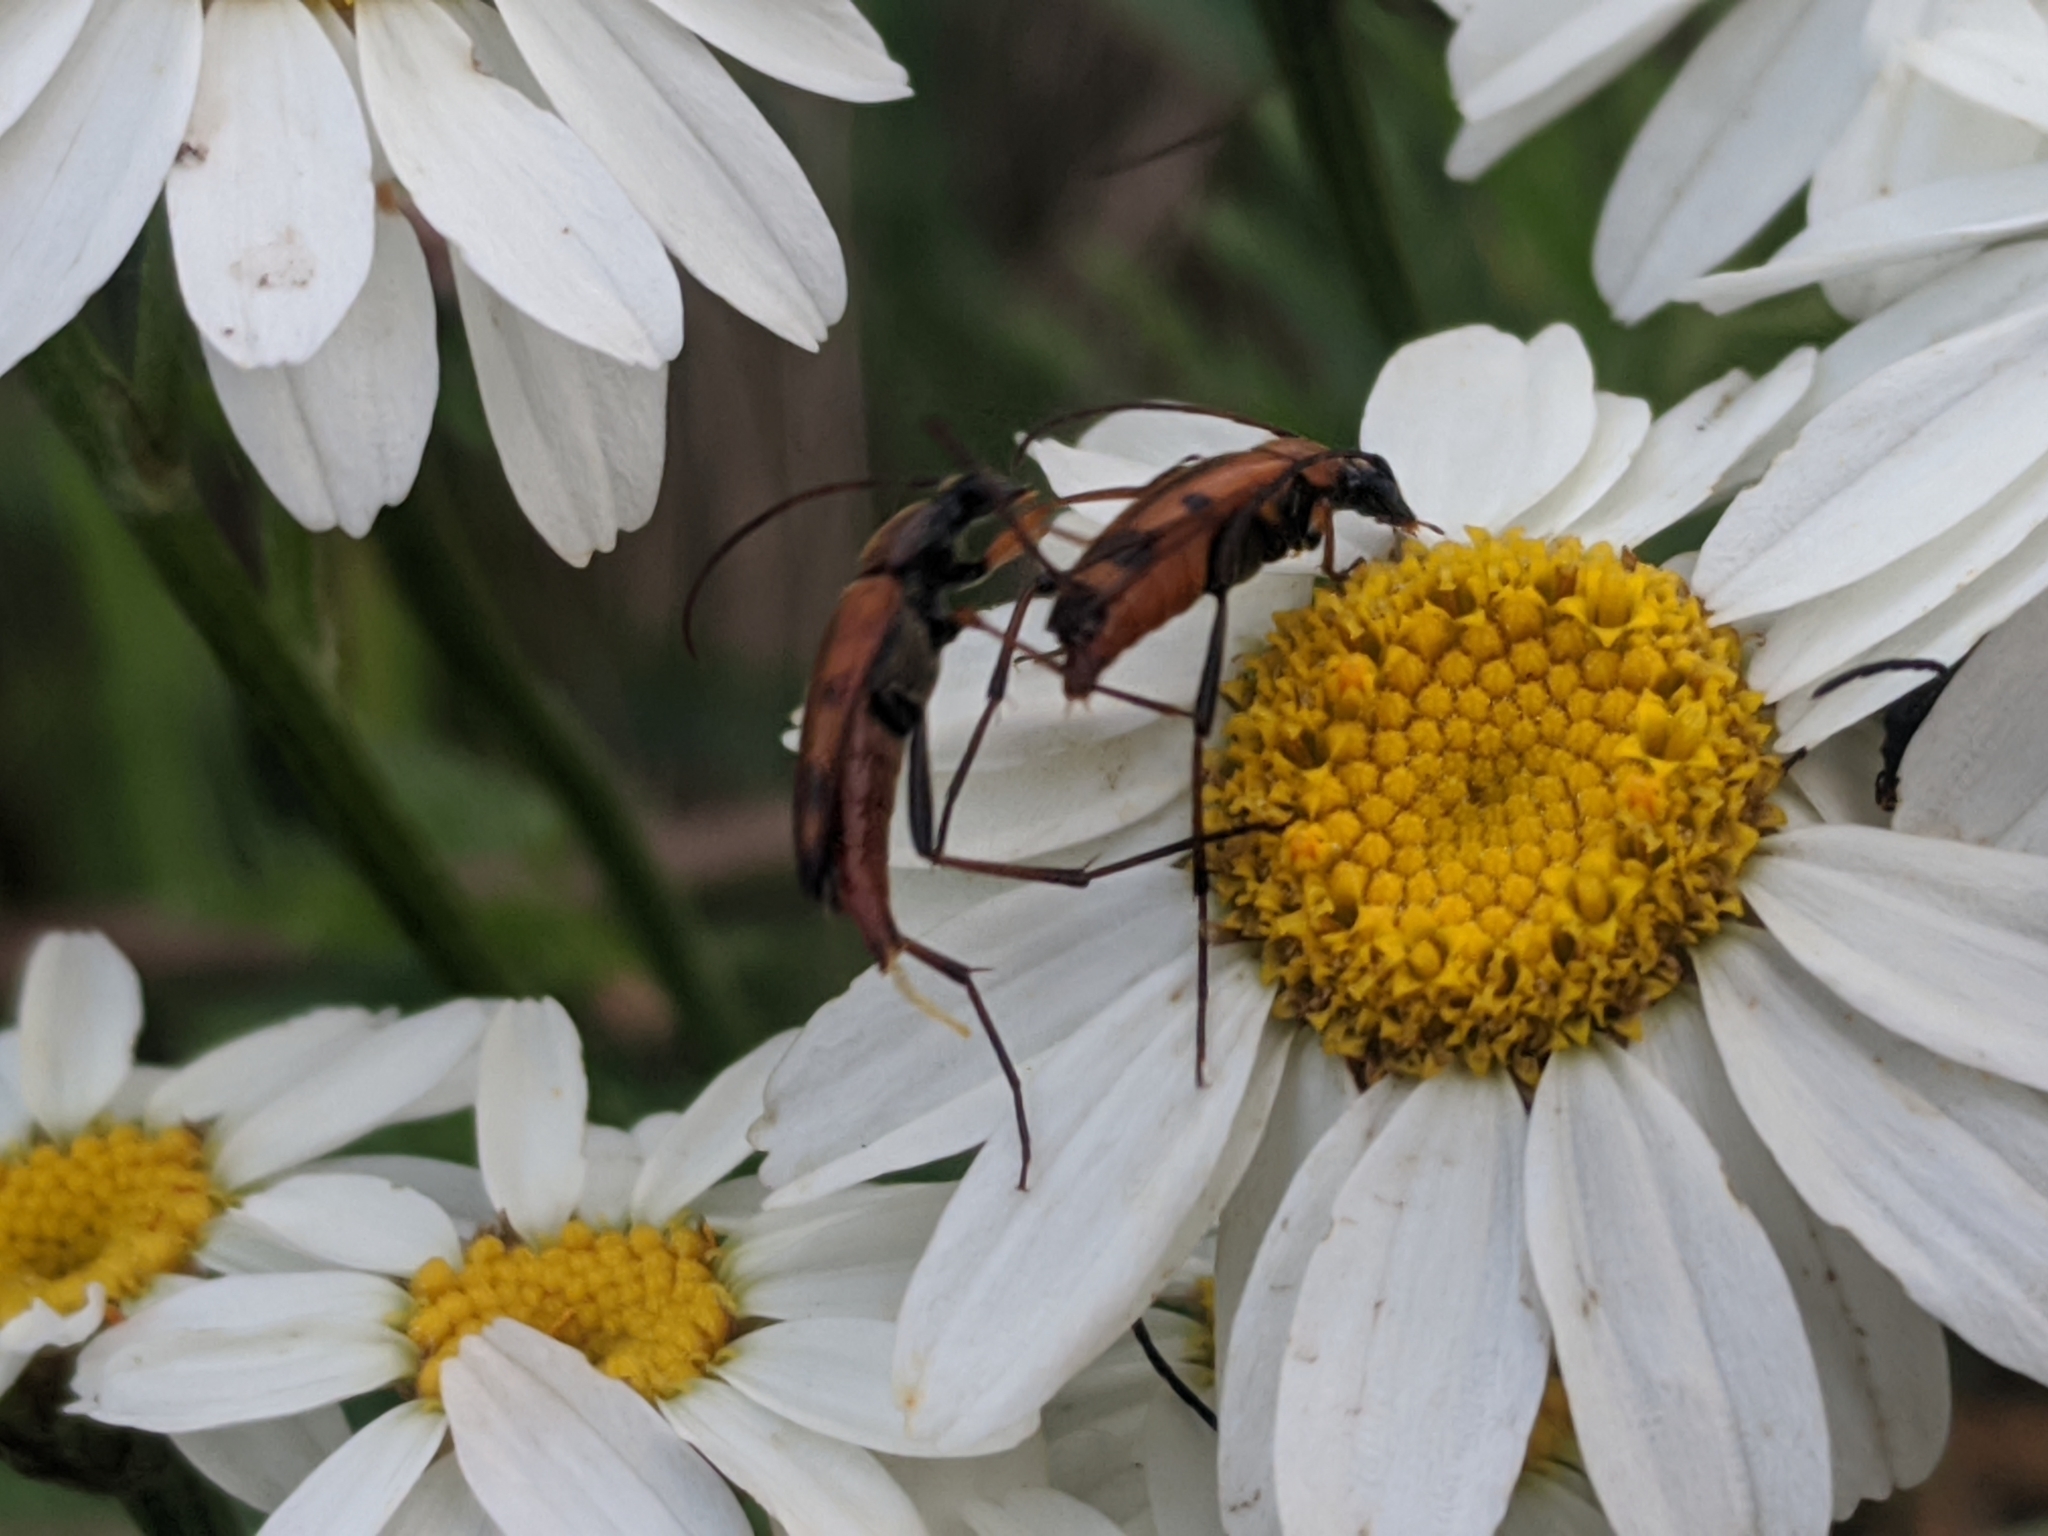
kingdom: Animalia
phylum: Arthropoda
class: Insecta
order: Coleoptera
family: Cerambycidae
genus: Stenurella
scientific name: Stenurella septempunctata
